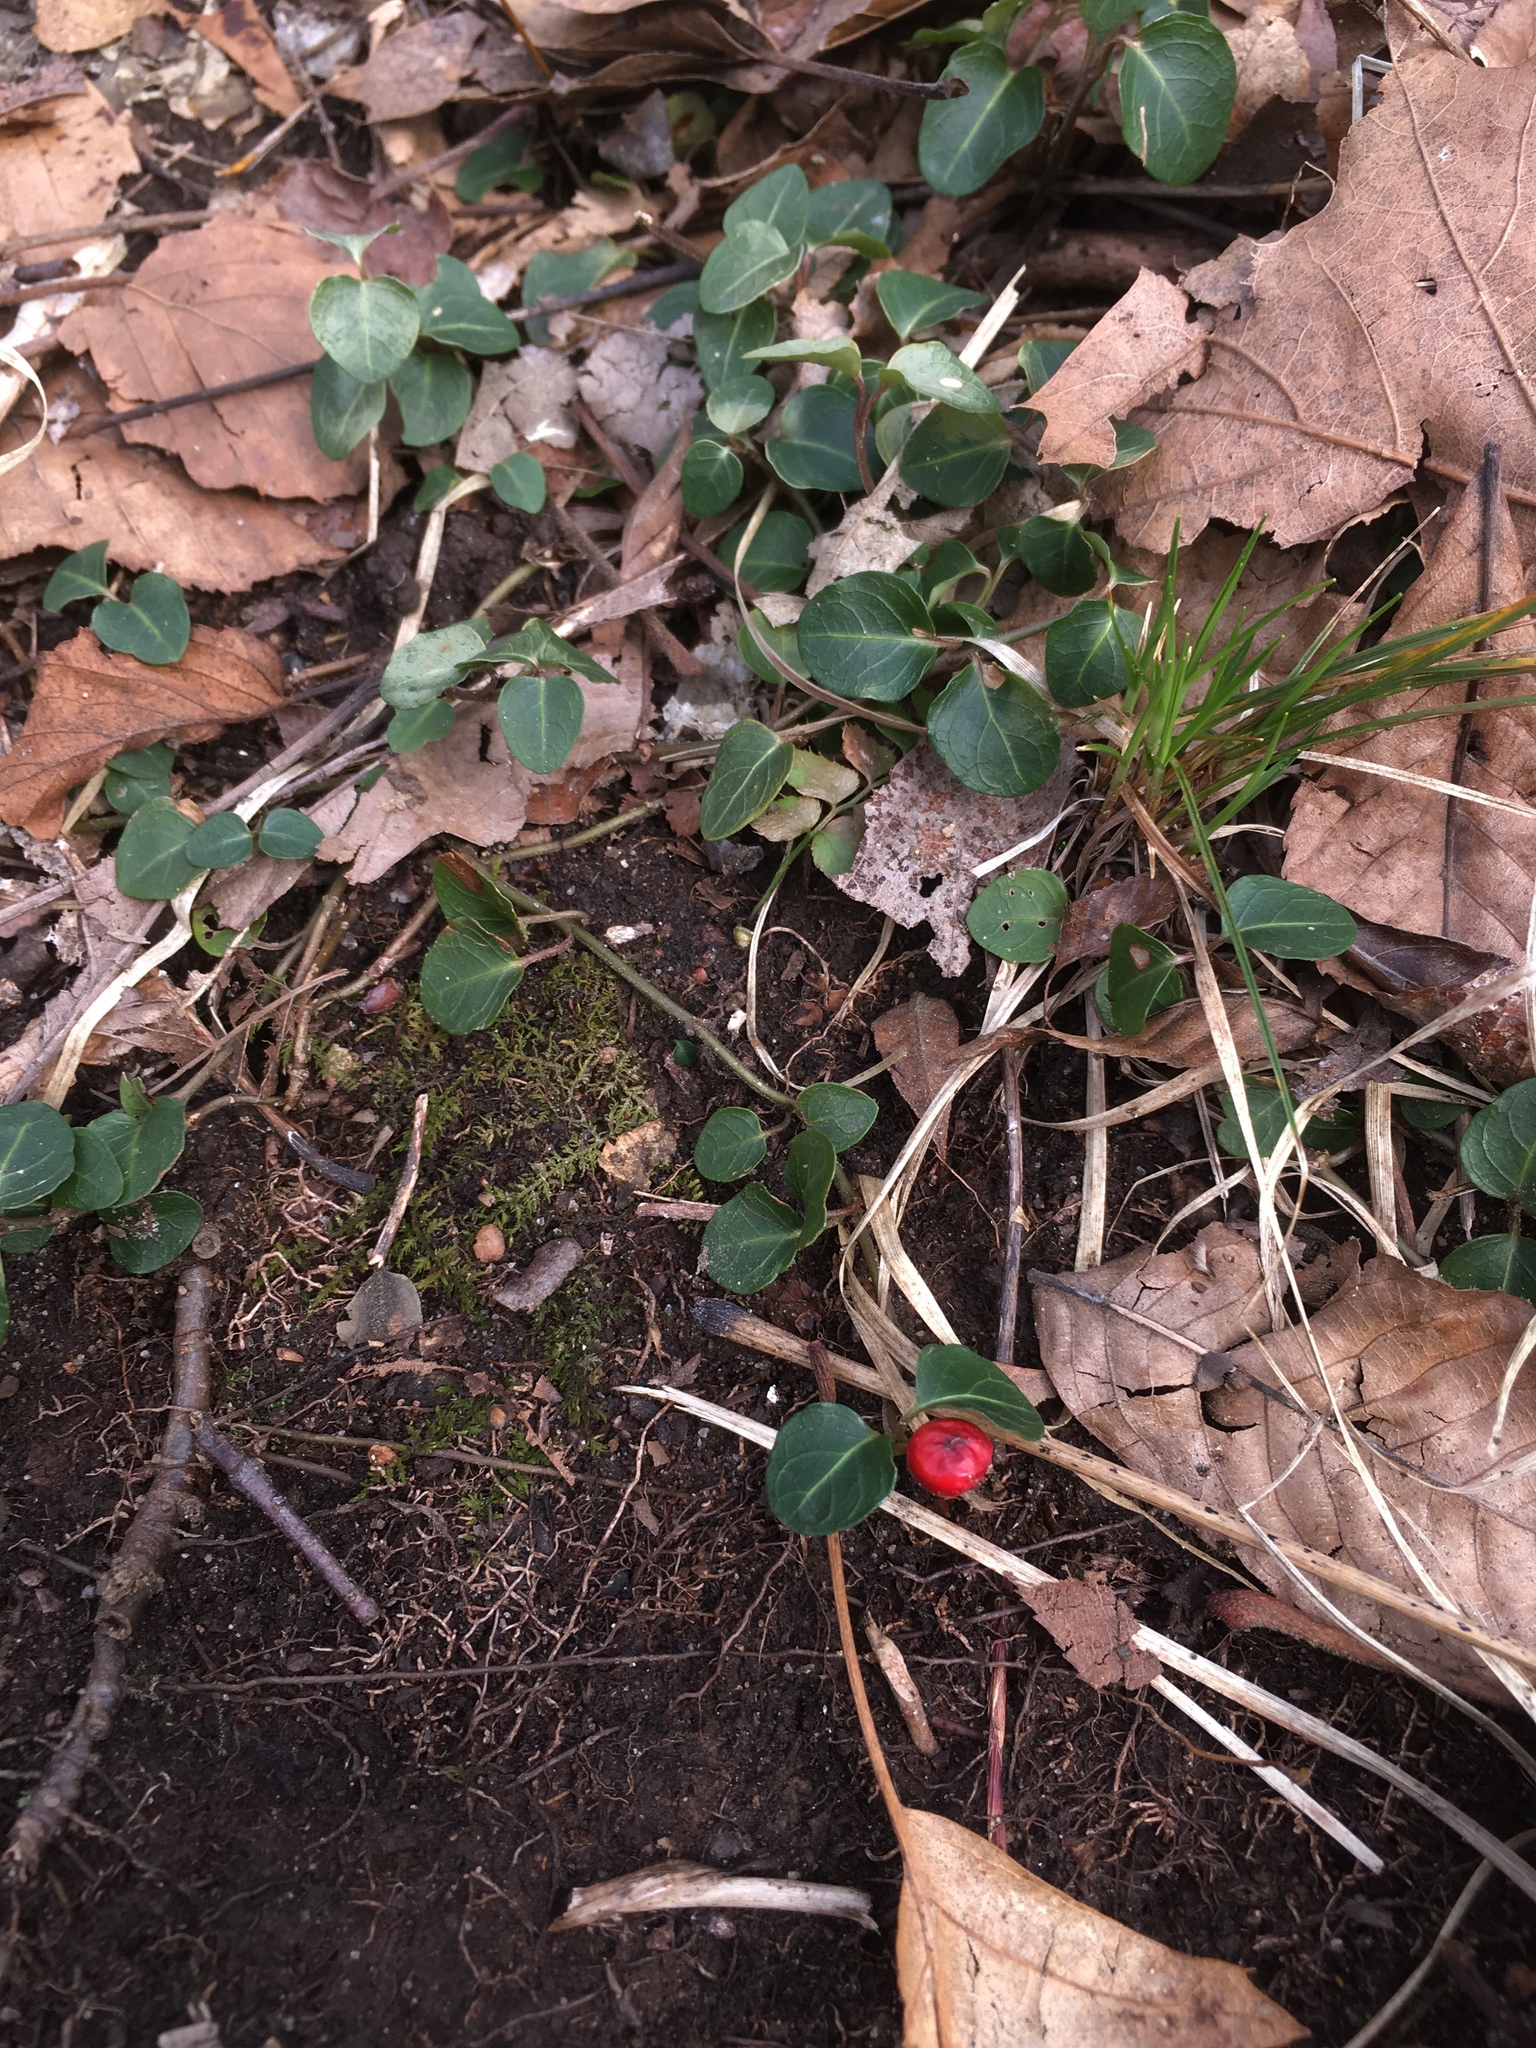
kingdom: Plantae
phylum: Tracheophyta
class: Magnoliopsida
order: Gentianales
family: Rubiaceae
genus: Mitchella
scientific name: Mitchella repens
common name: Partridge-berry
